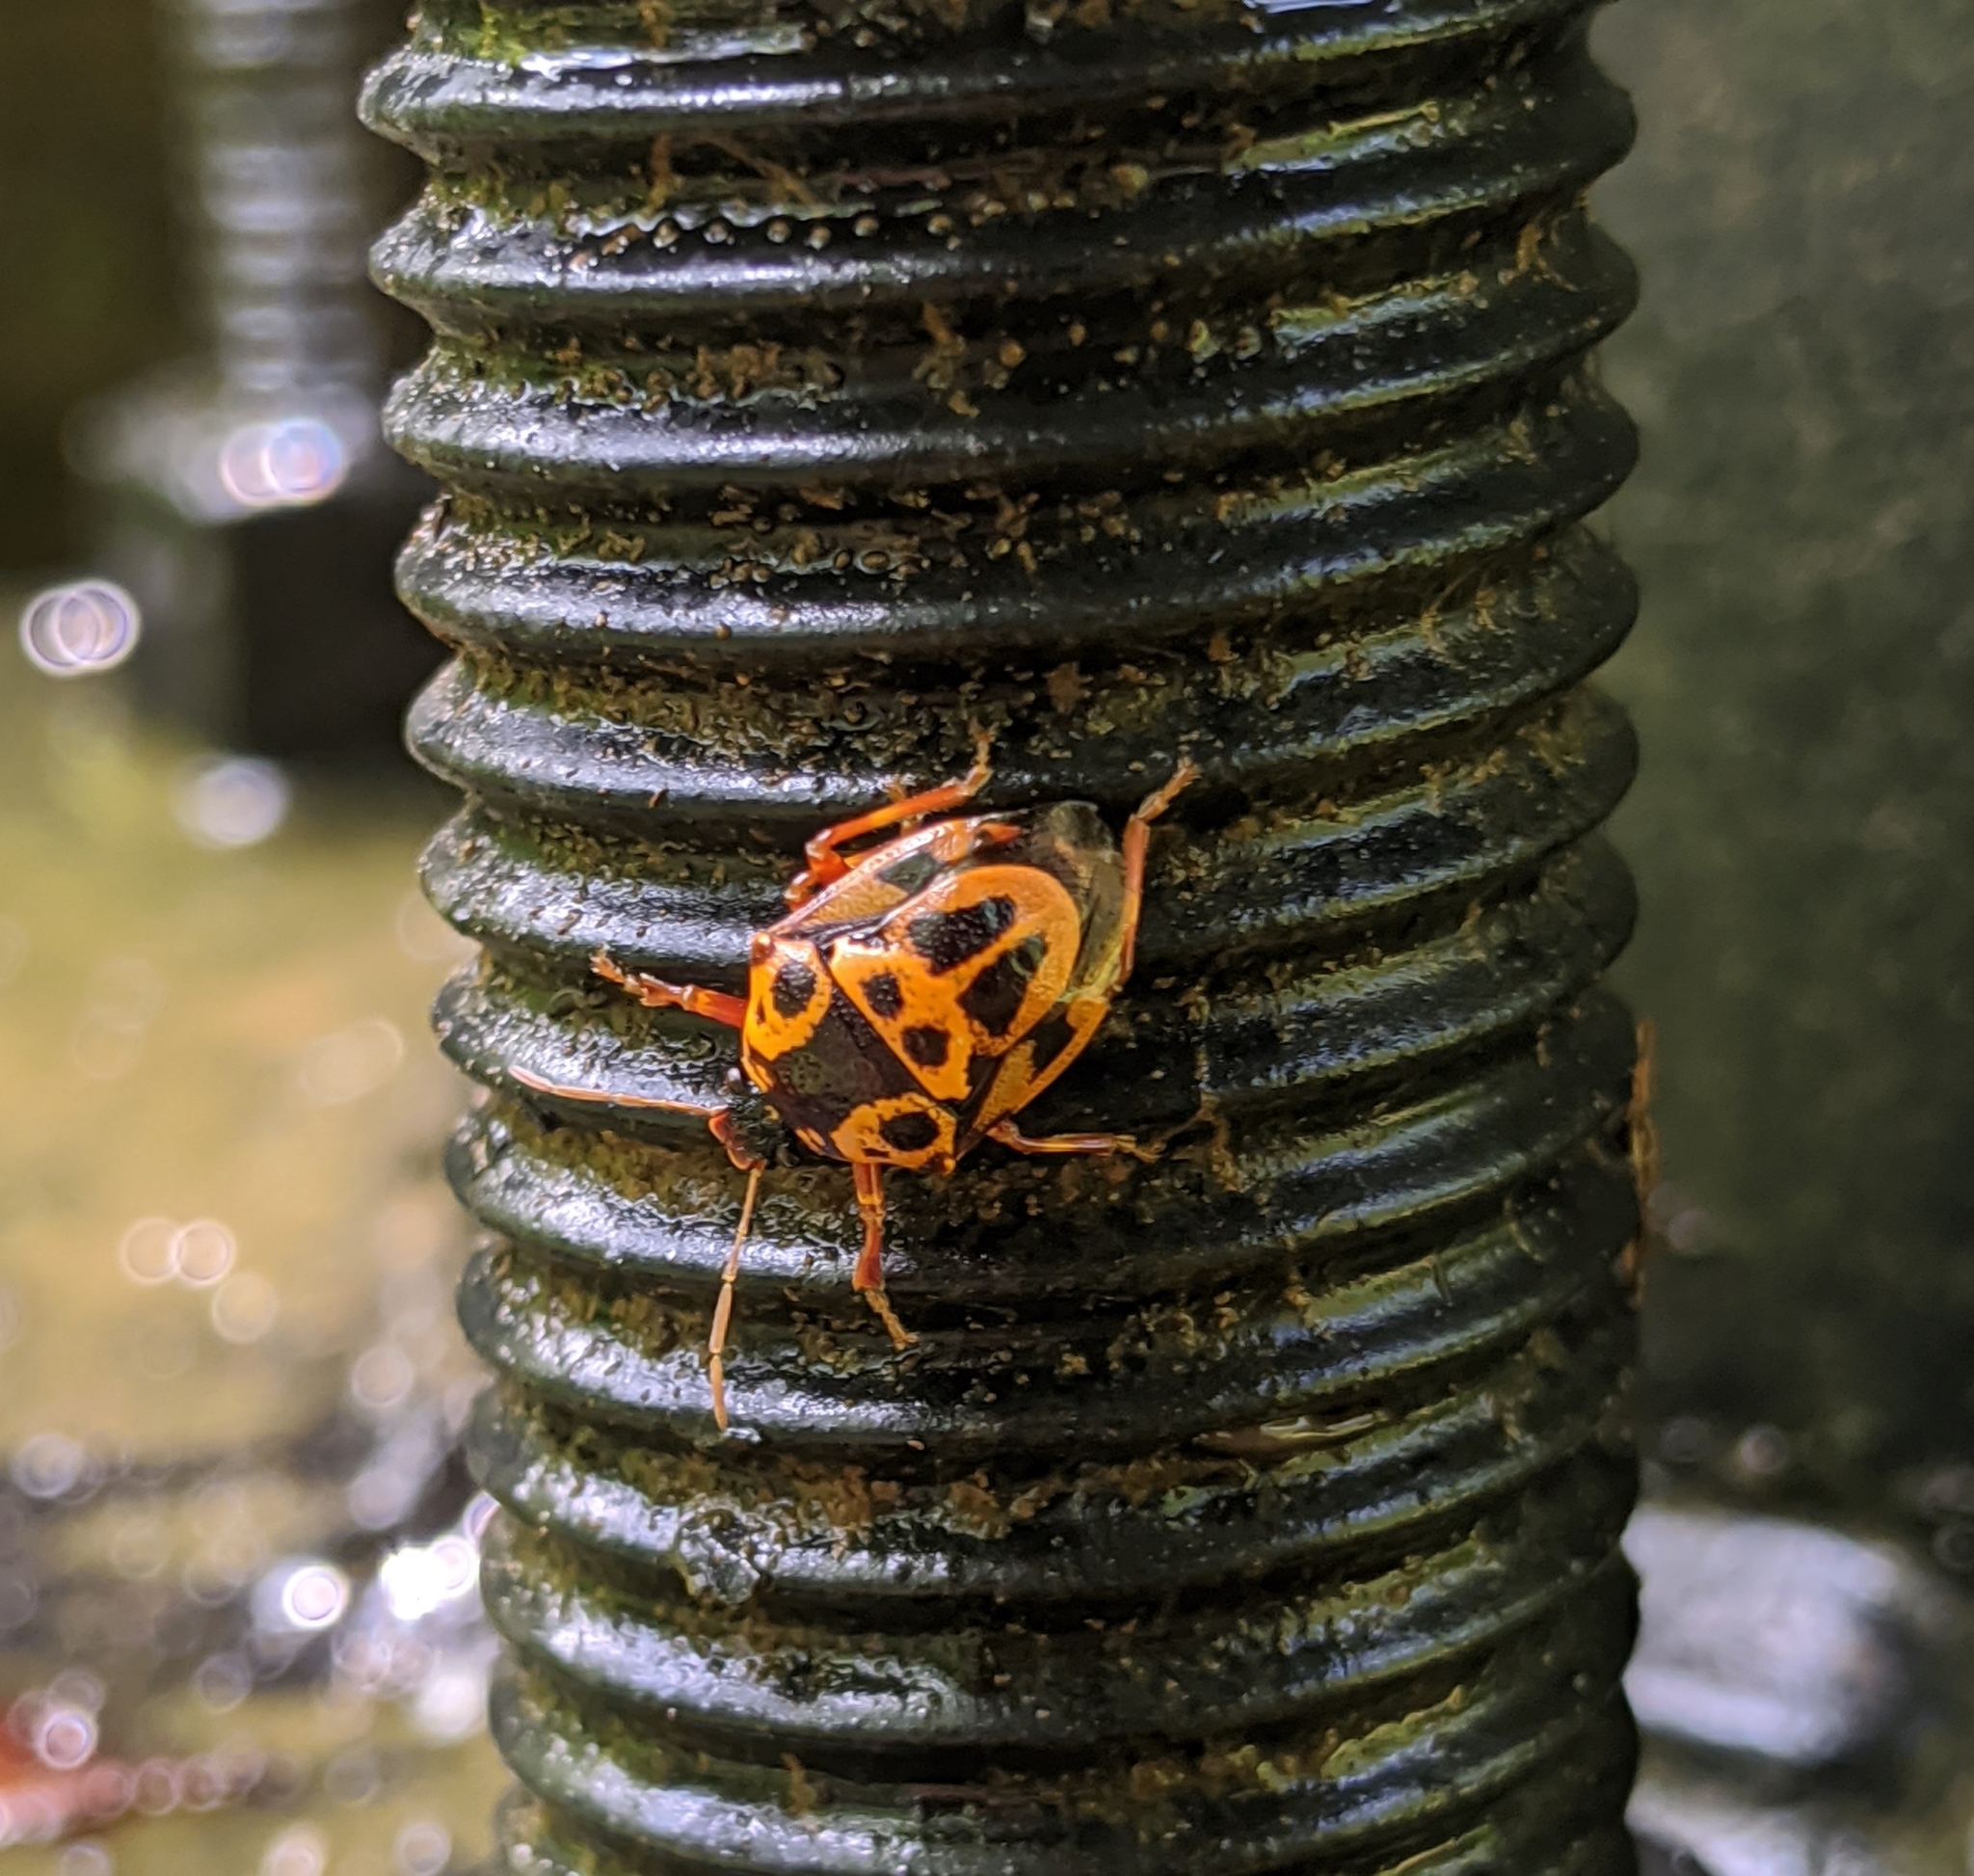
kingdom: Animalia
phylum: Arthropoda
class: Insecta
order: Hemiptera
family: Pentatomidae
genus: Stiretrus
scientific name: Stiretrus anchorago
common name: Anchor stink bug
